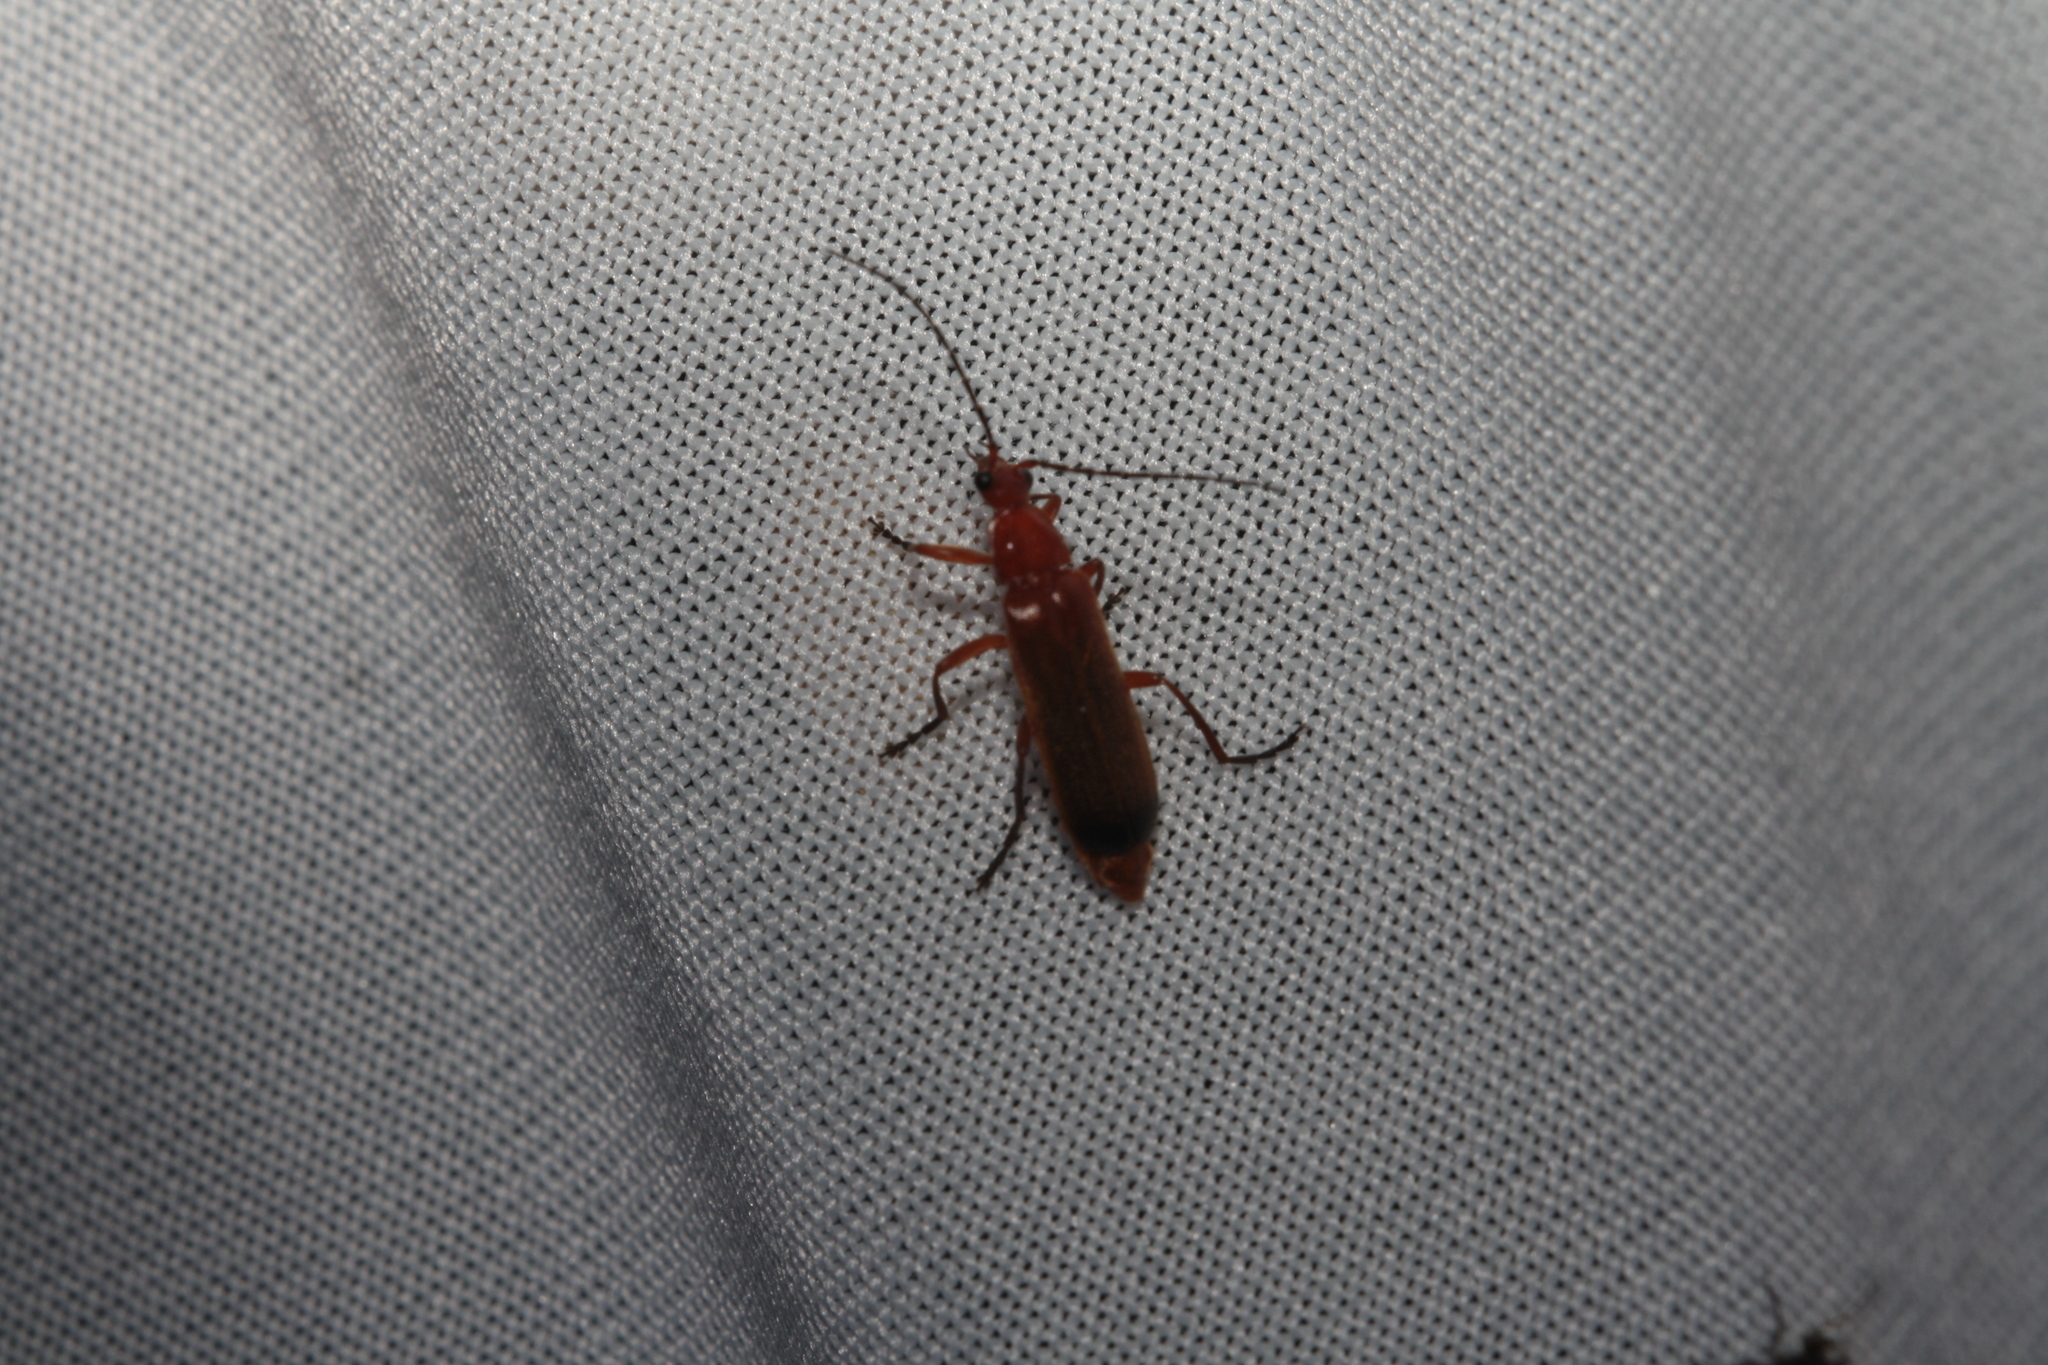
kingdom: Animalia
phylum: Arthropoda
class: Insecta
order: Coleoptera
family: Cantharidae
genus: Rhagonycha
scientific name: Rhagonycha fulva
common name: Common red soldier beetle
